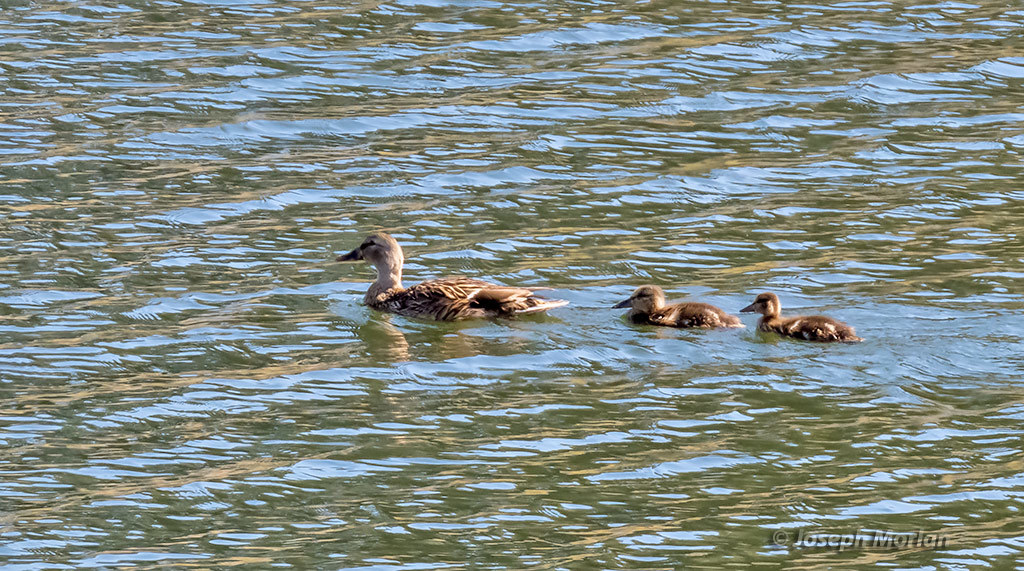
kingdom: Animalia
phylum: Chordata
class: Aves
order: Anseriformes
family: Anatidae
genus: Anas
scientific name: Anas platyrhynchos
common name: Mallard
